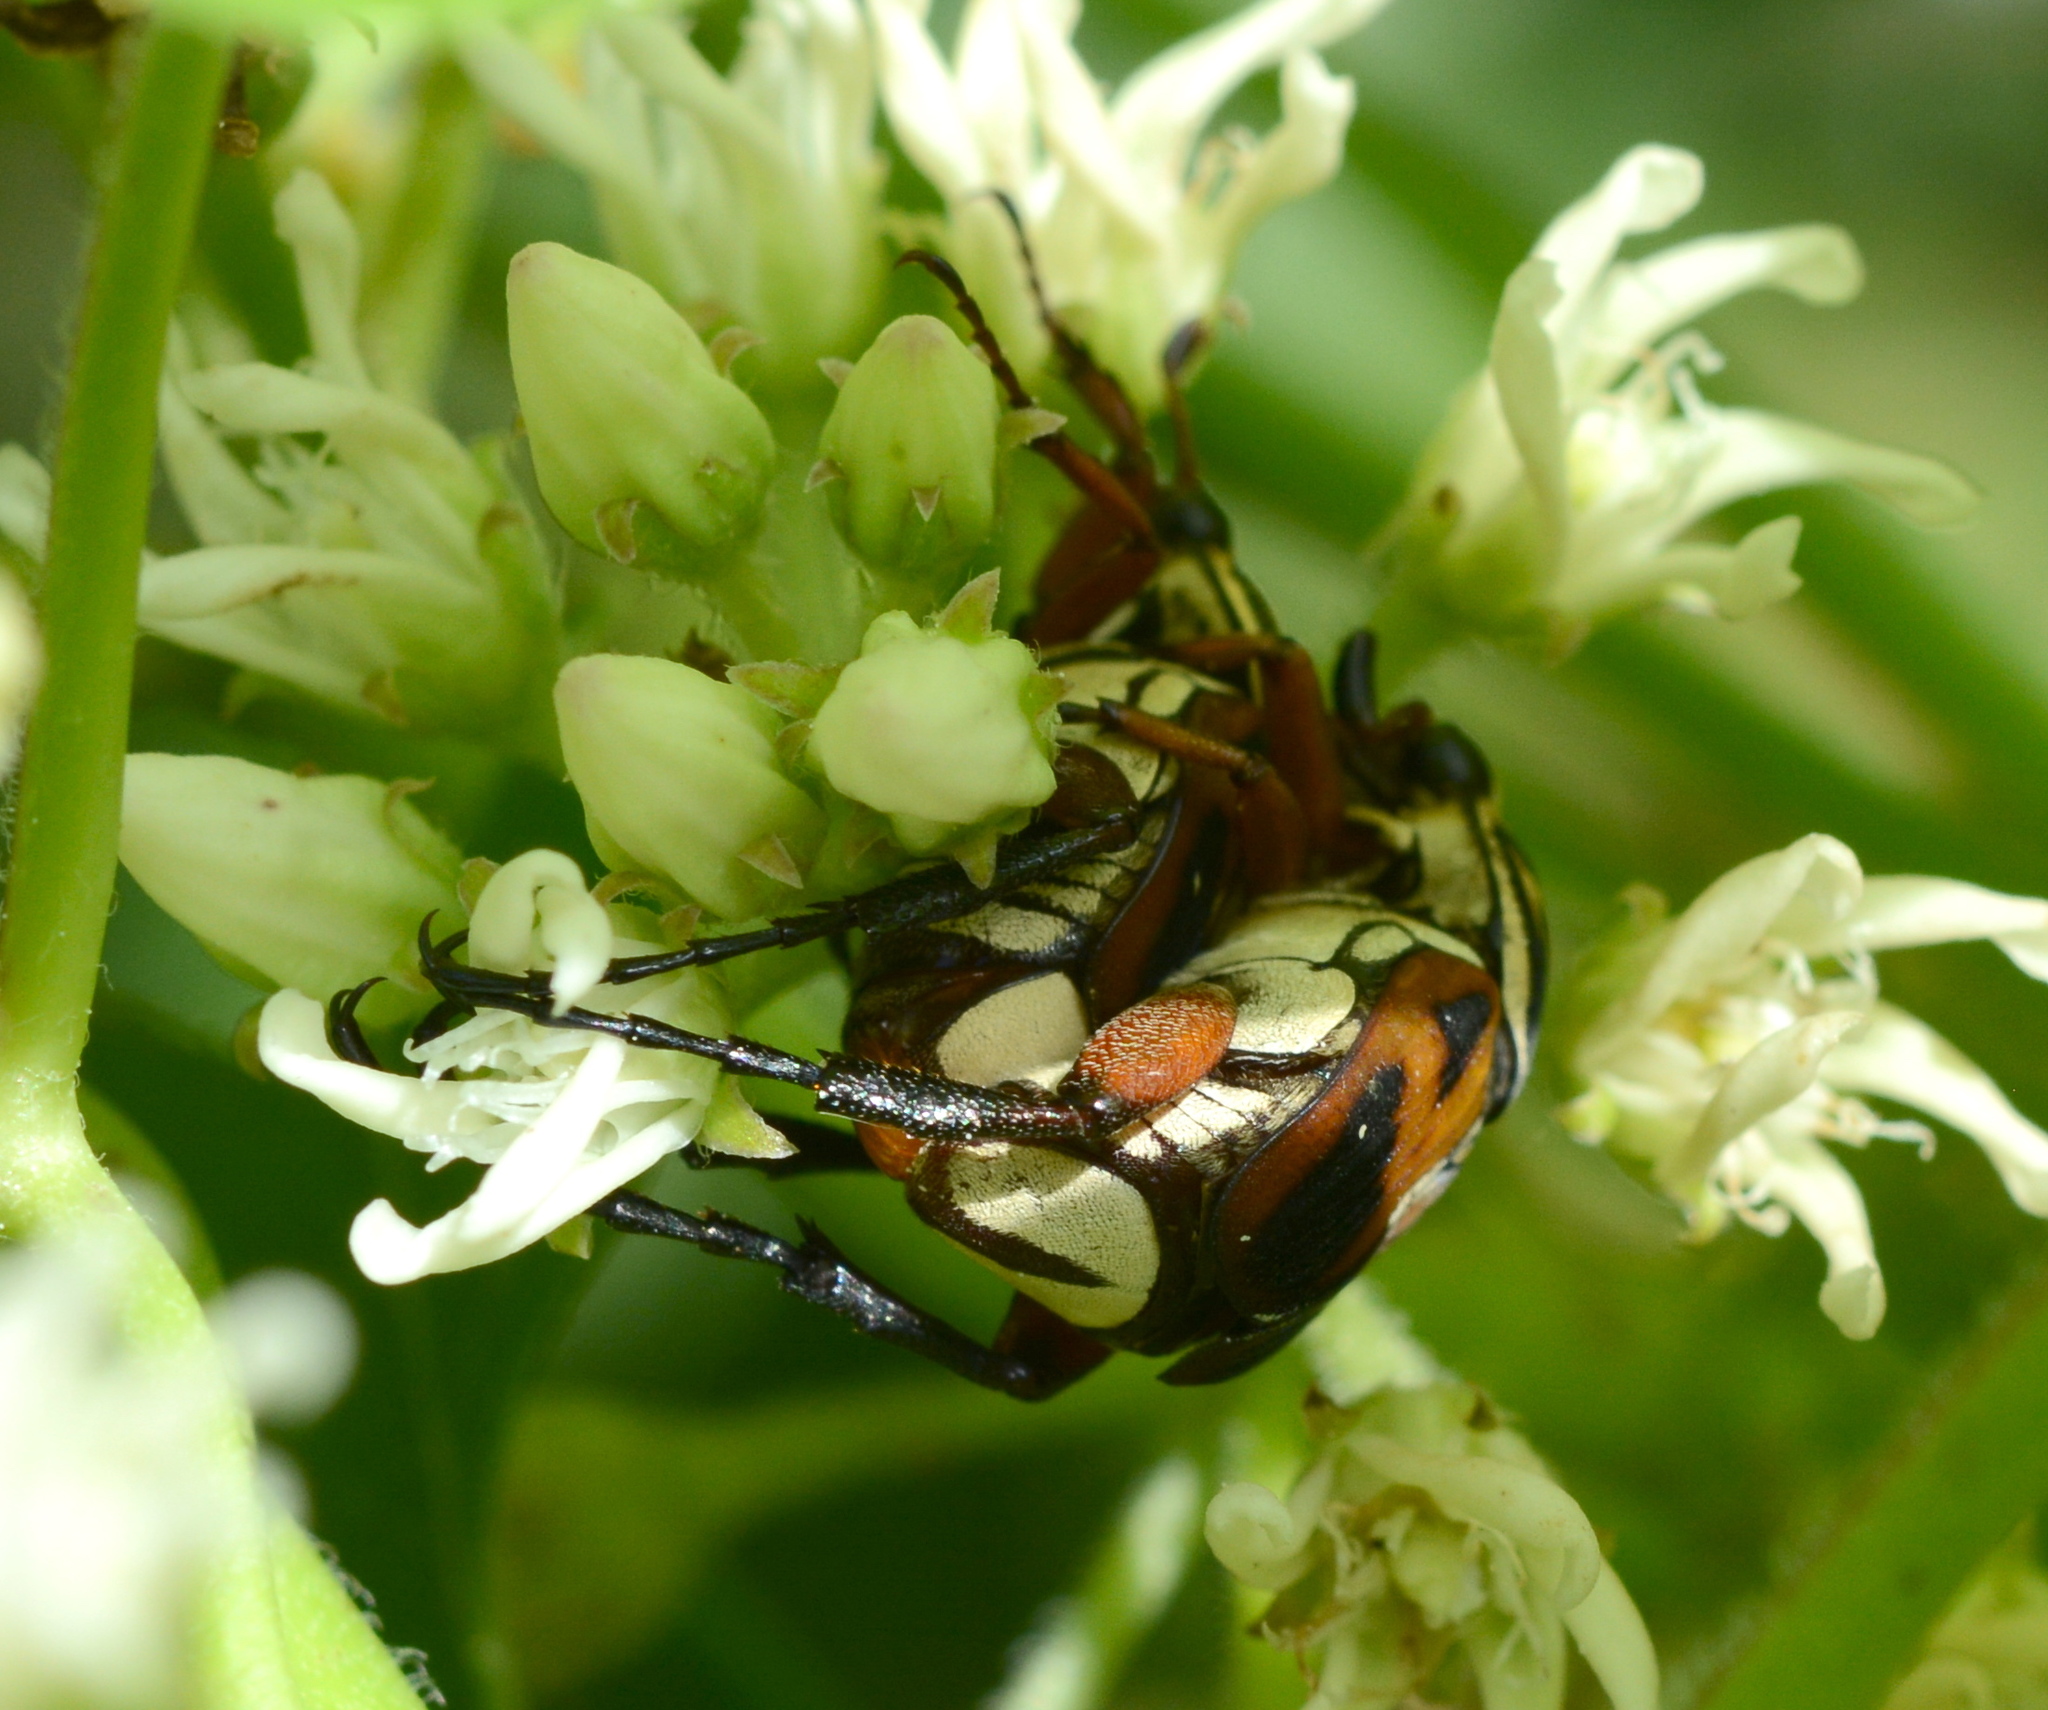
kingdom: Animalia
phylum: Arthropoda
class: Insecta
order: Coleoptera
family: Scarabaeidae
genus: Trigonopeltastes
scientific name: Trigonopeltastes delta
